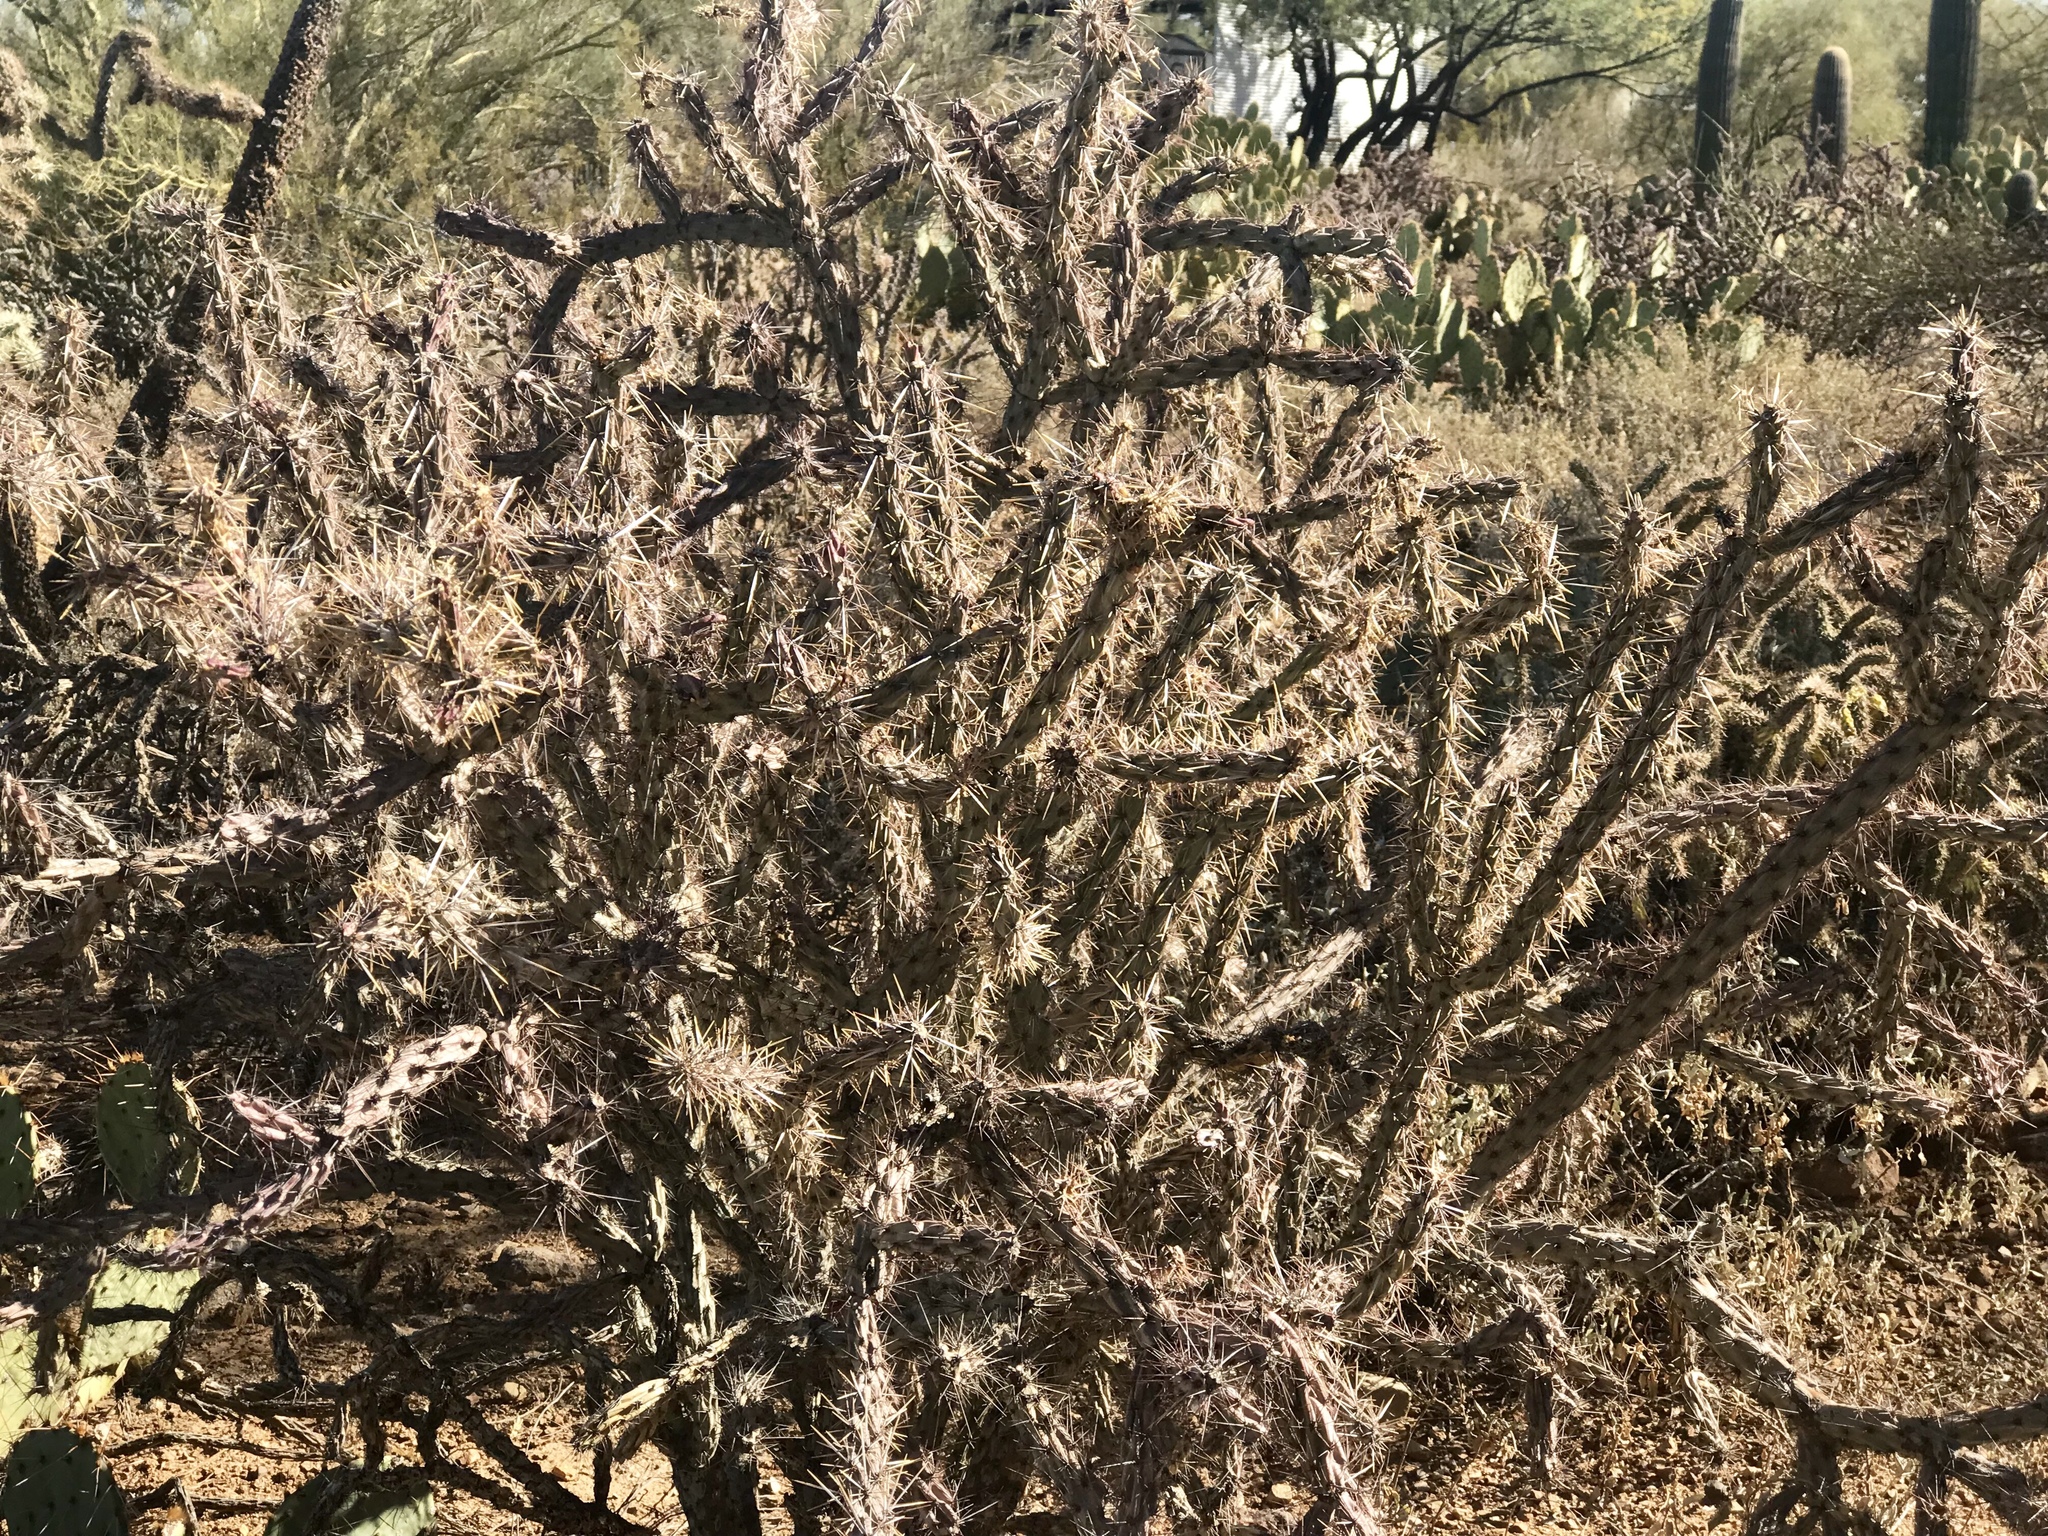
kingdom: Plantae
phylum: Tracheophyta
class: Magnoliopsida
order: Caryophyllales
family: Cactaceae
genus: Cylindropuntia
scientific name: Cylindropuntia acanthocarpa
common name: Buckhorn cholla
